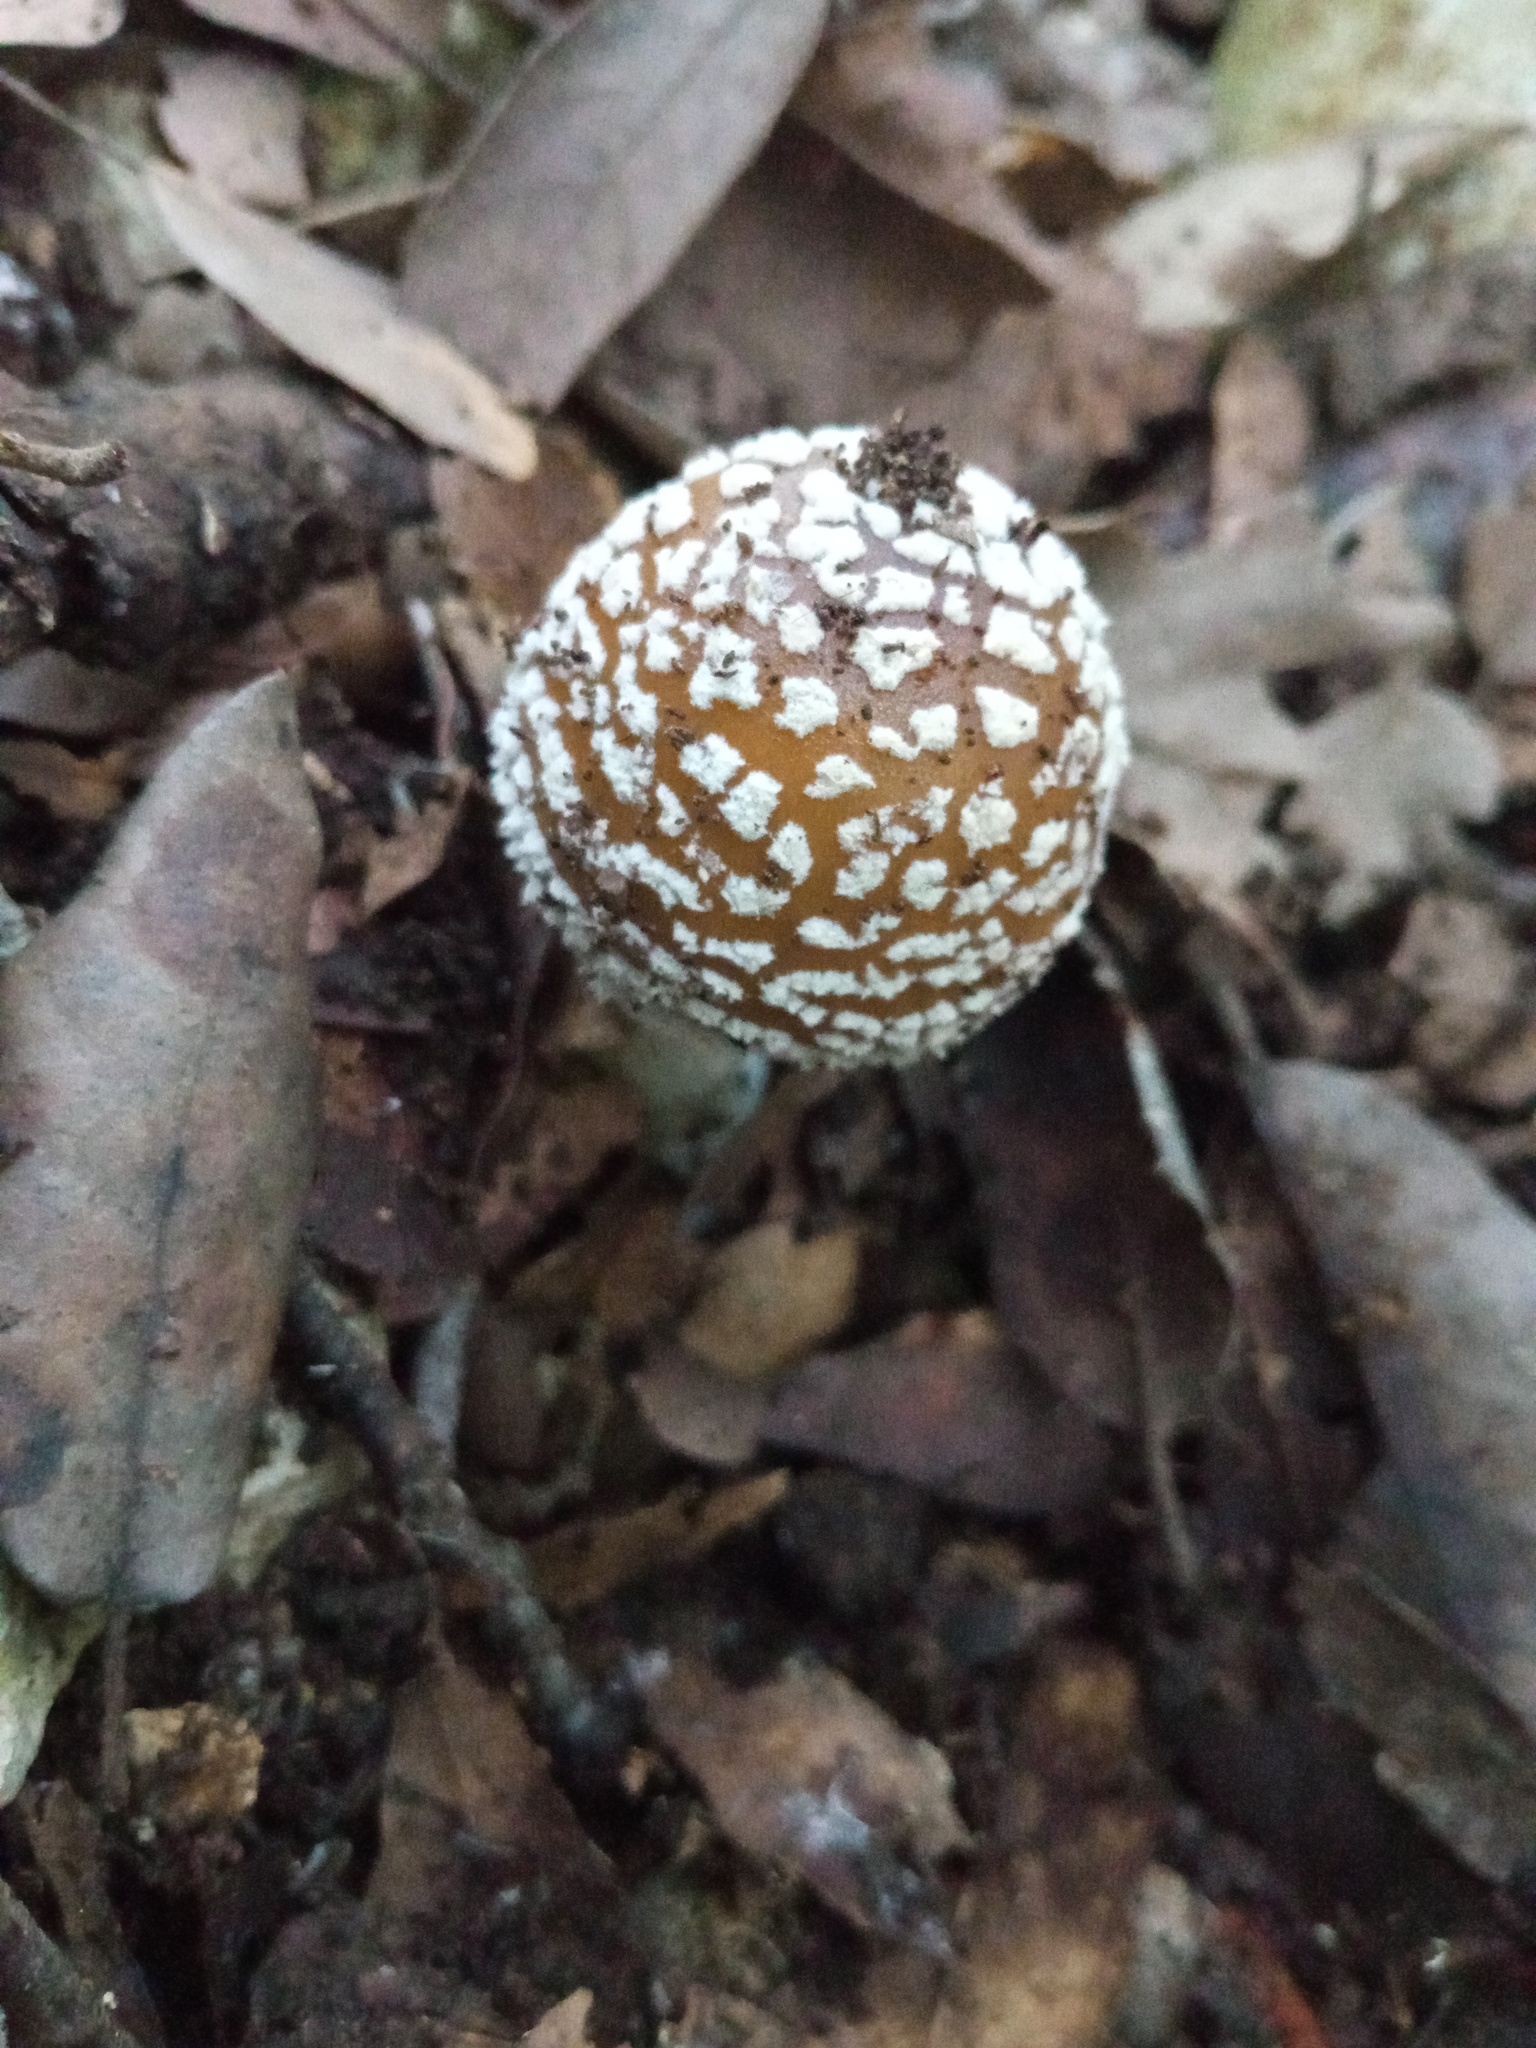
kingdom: Fungi
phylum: Basidiomycota
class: Agaricomycetes
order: Agaricales
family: Amanitaceae
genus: Amanita
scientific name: Amanita pantherina
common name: Panthercap
